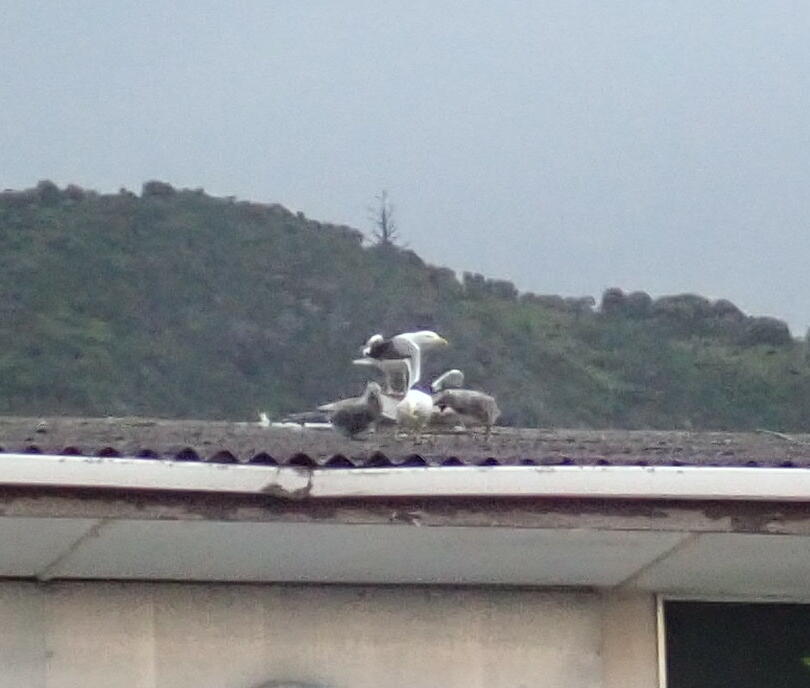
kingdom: Animalia
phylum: Chordata
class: Aves
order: Charadriiformes
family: Laridae
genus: Larus
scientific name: Larus dominicanus
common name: Kelp gull
